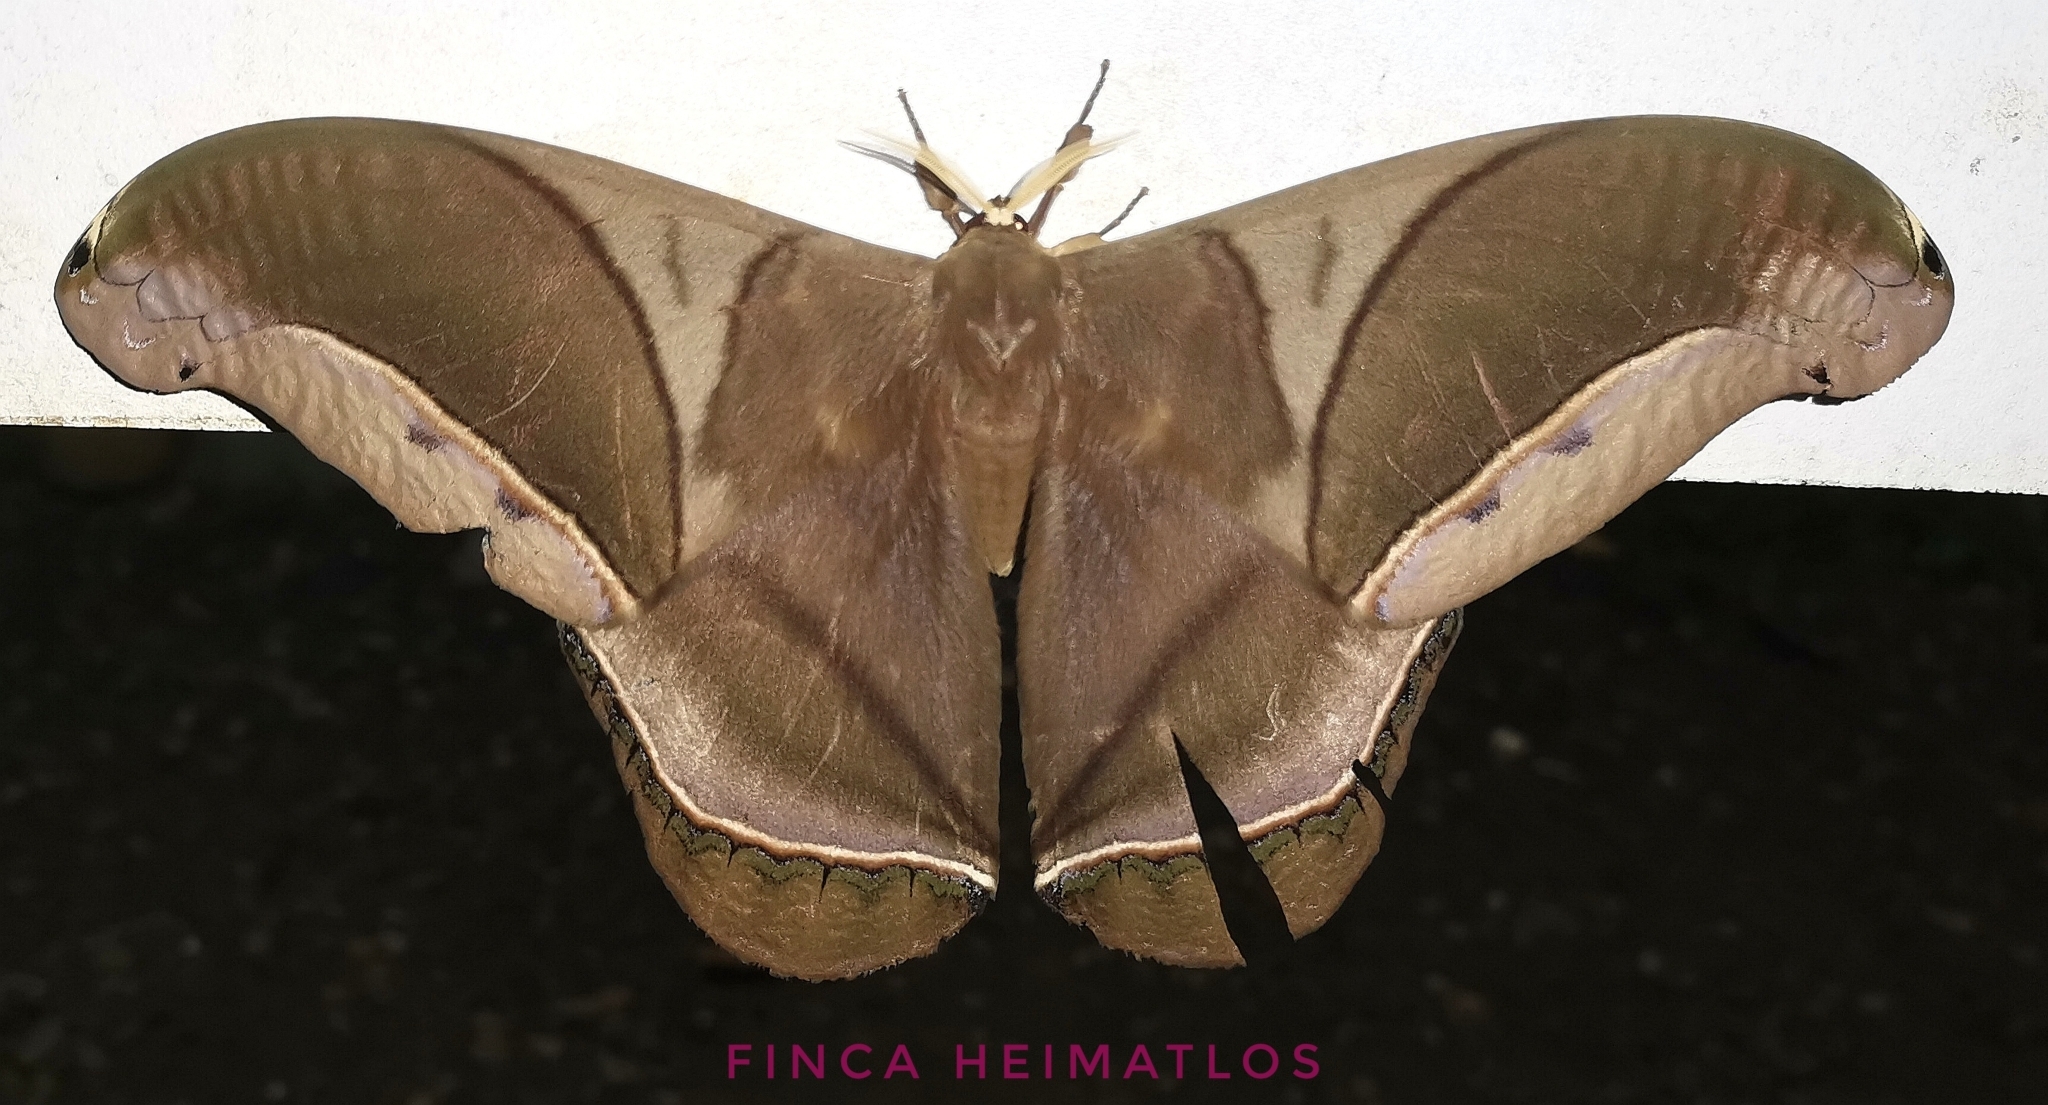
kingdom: Animalia
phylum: Arthropoda
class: Insecta
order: Lepidoptera
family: Saturniidae
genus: Rhescyntis
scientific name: Rhescyntis hippodamia
